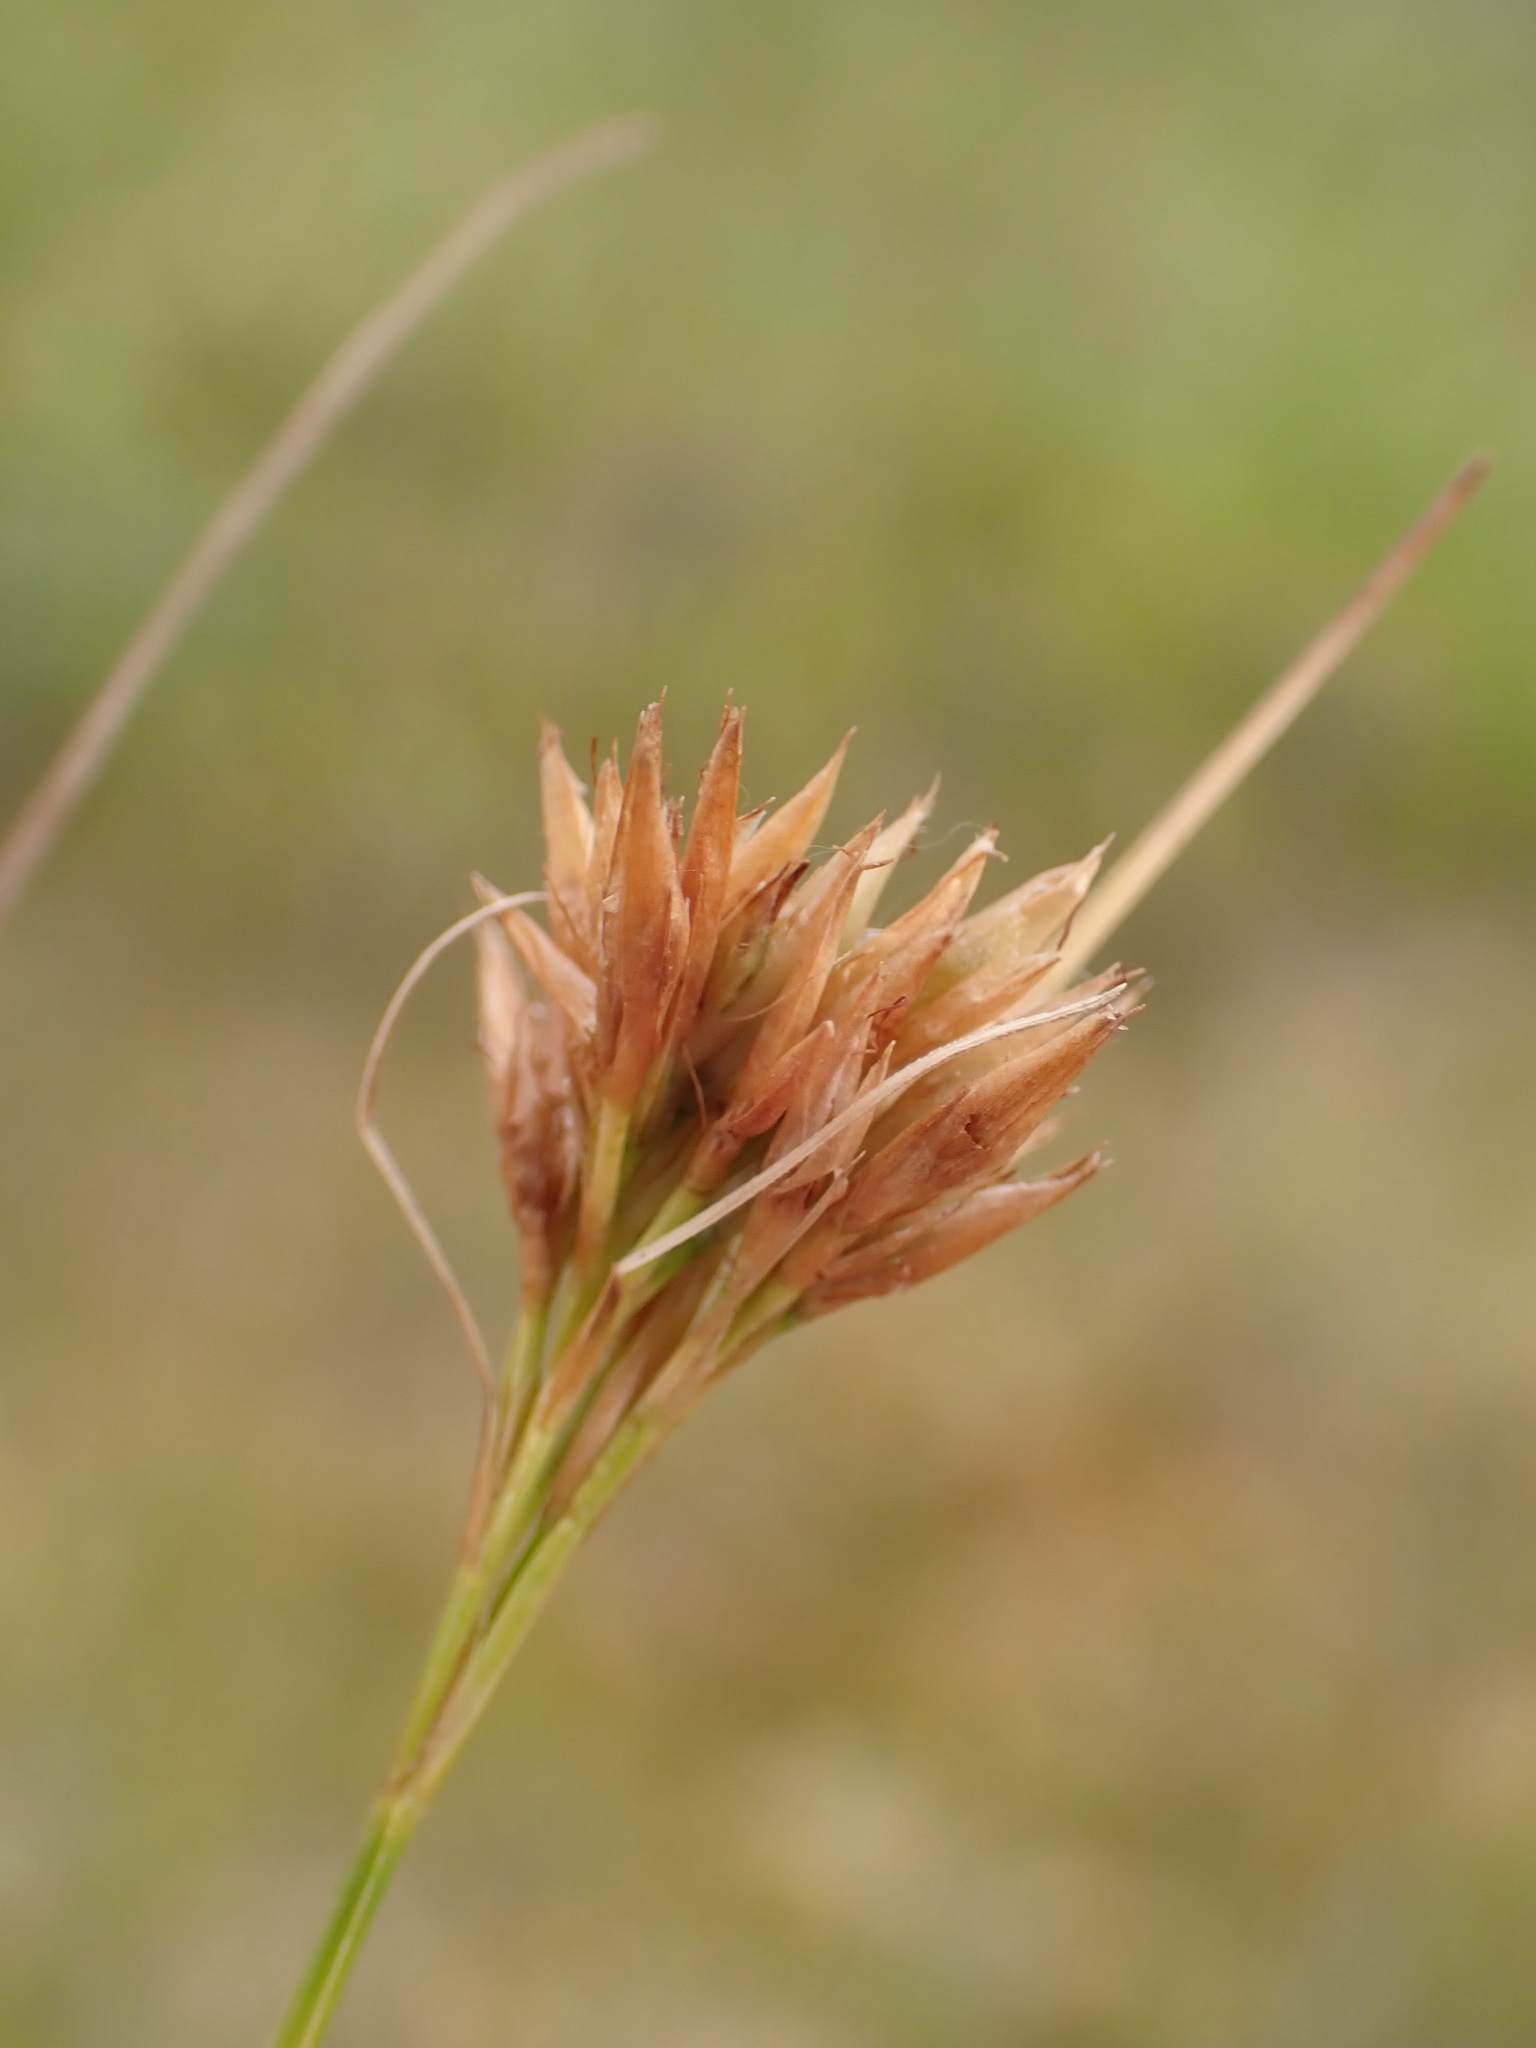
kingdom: Plantae
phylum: Tracheophyta
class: Liliopsida
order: Poales
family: Cyperaceae
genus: Rhynchospora
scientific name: Rhynchospora alba
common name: White beak-sedge
